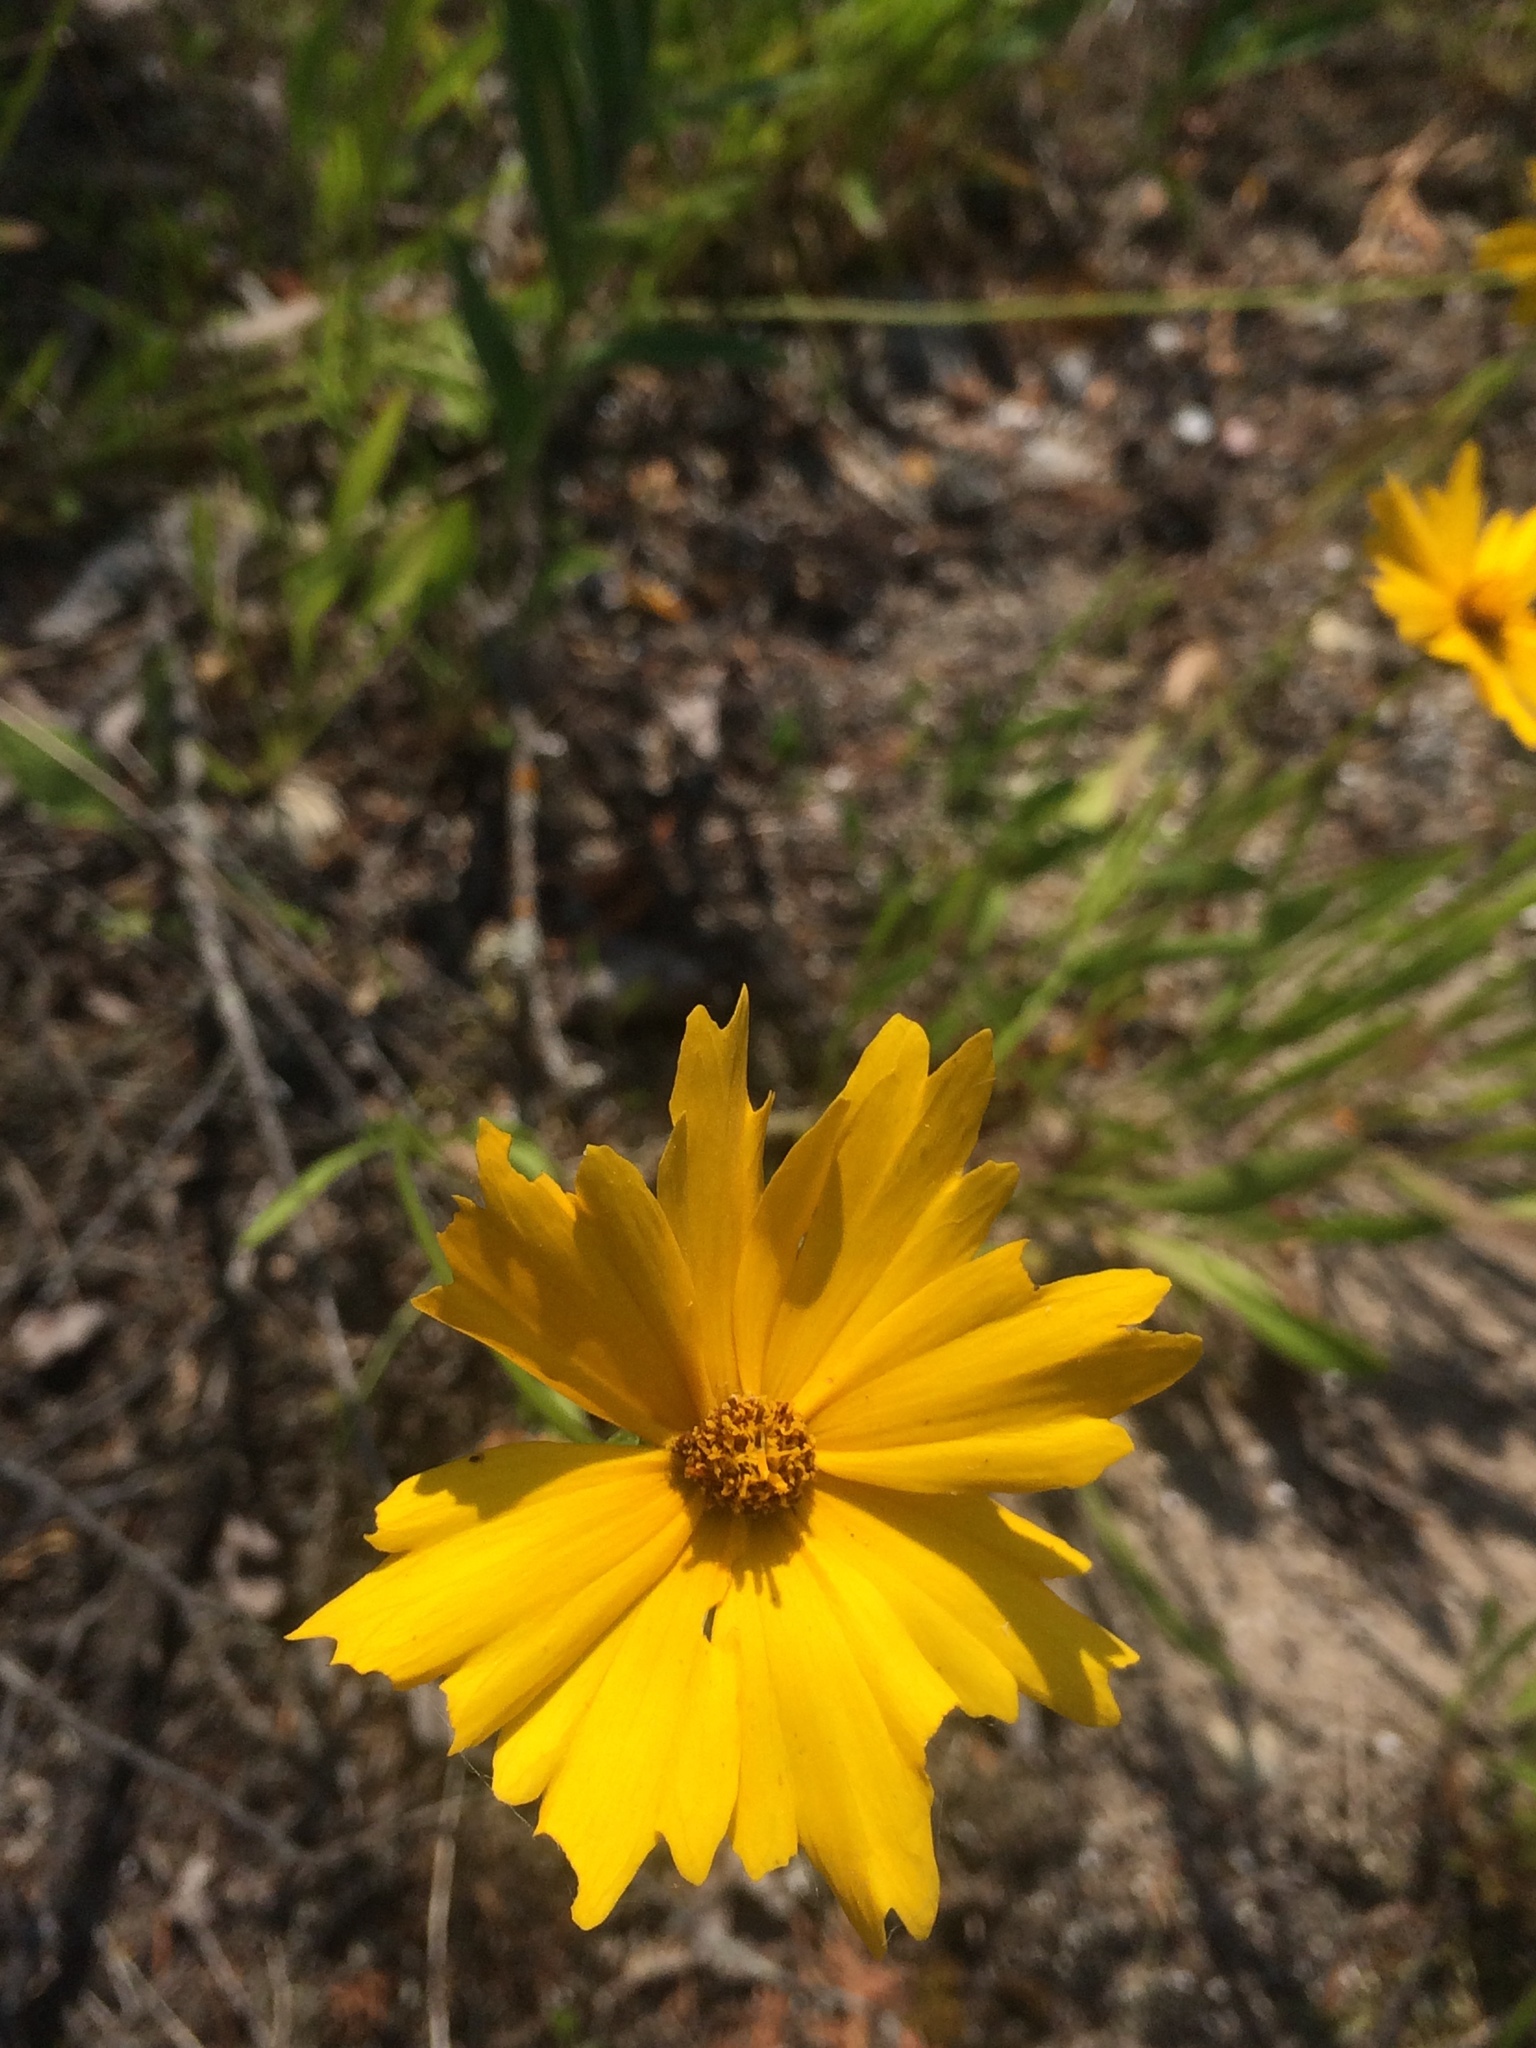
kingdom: Plantae
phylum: Tracheophyta
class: Magnoliopsida
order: Asterales
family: Asteraceae
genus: Coreopsis
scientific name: Coreopsis lanceolata
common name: Garden coreopsis
